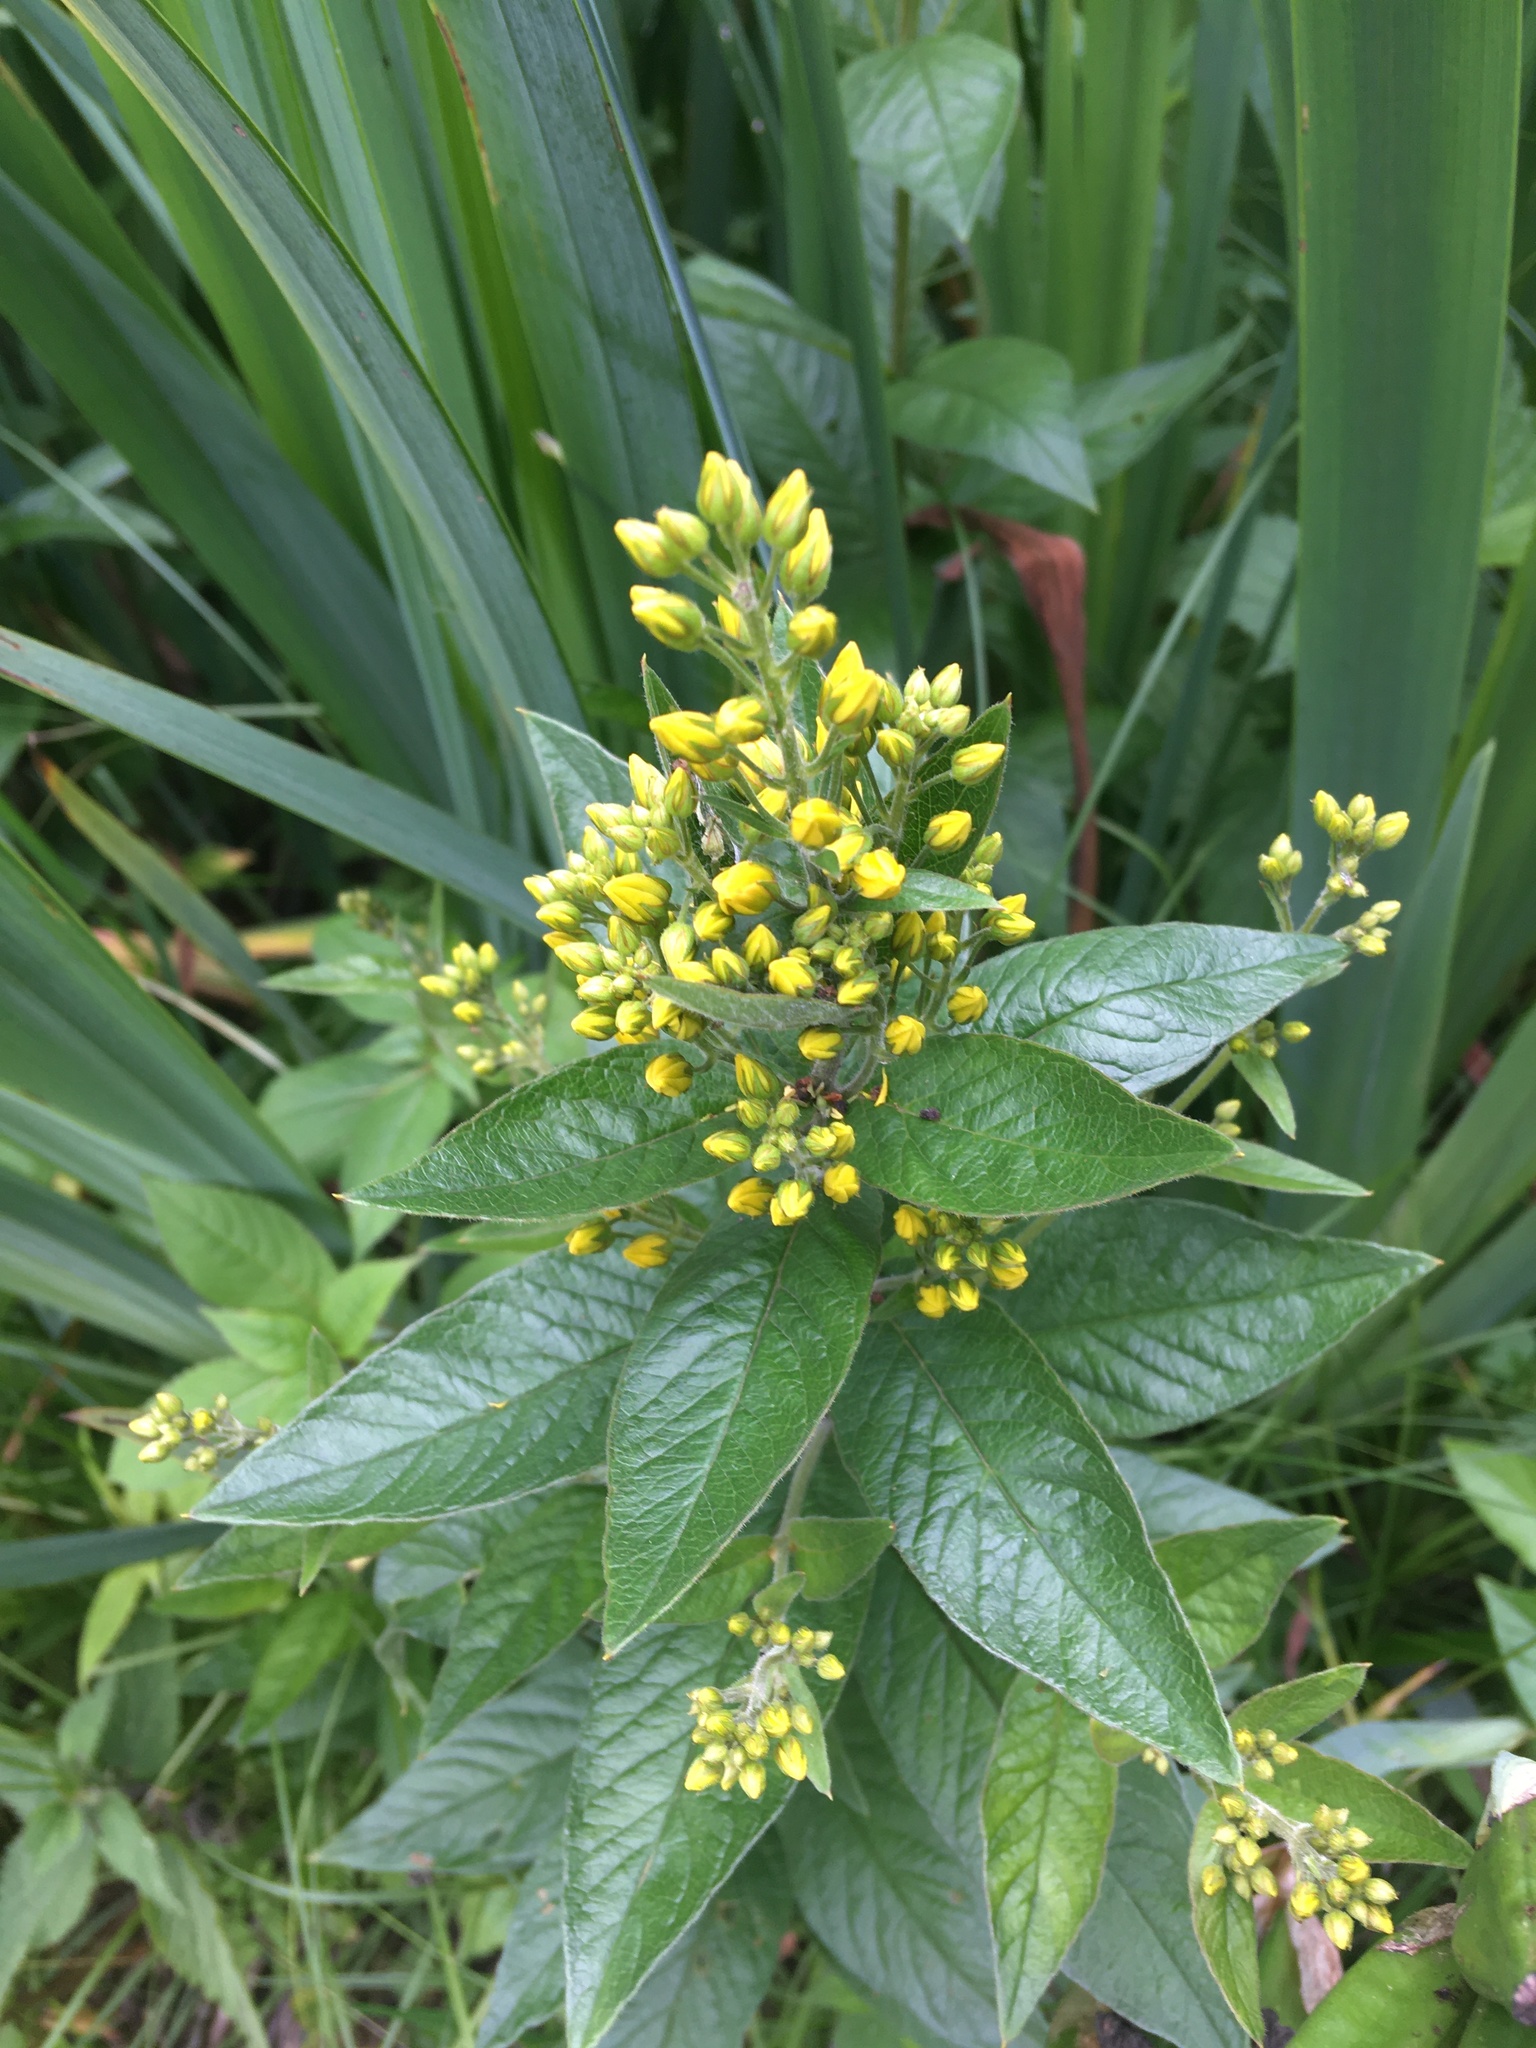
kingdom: Plantae
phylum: Tracheophyta
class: Magnoliopsida
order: Ericales
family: Primulaceae
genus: Lysimachia
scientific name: Lysimachia vulgaris
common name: Yellow loosestrife
